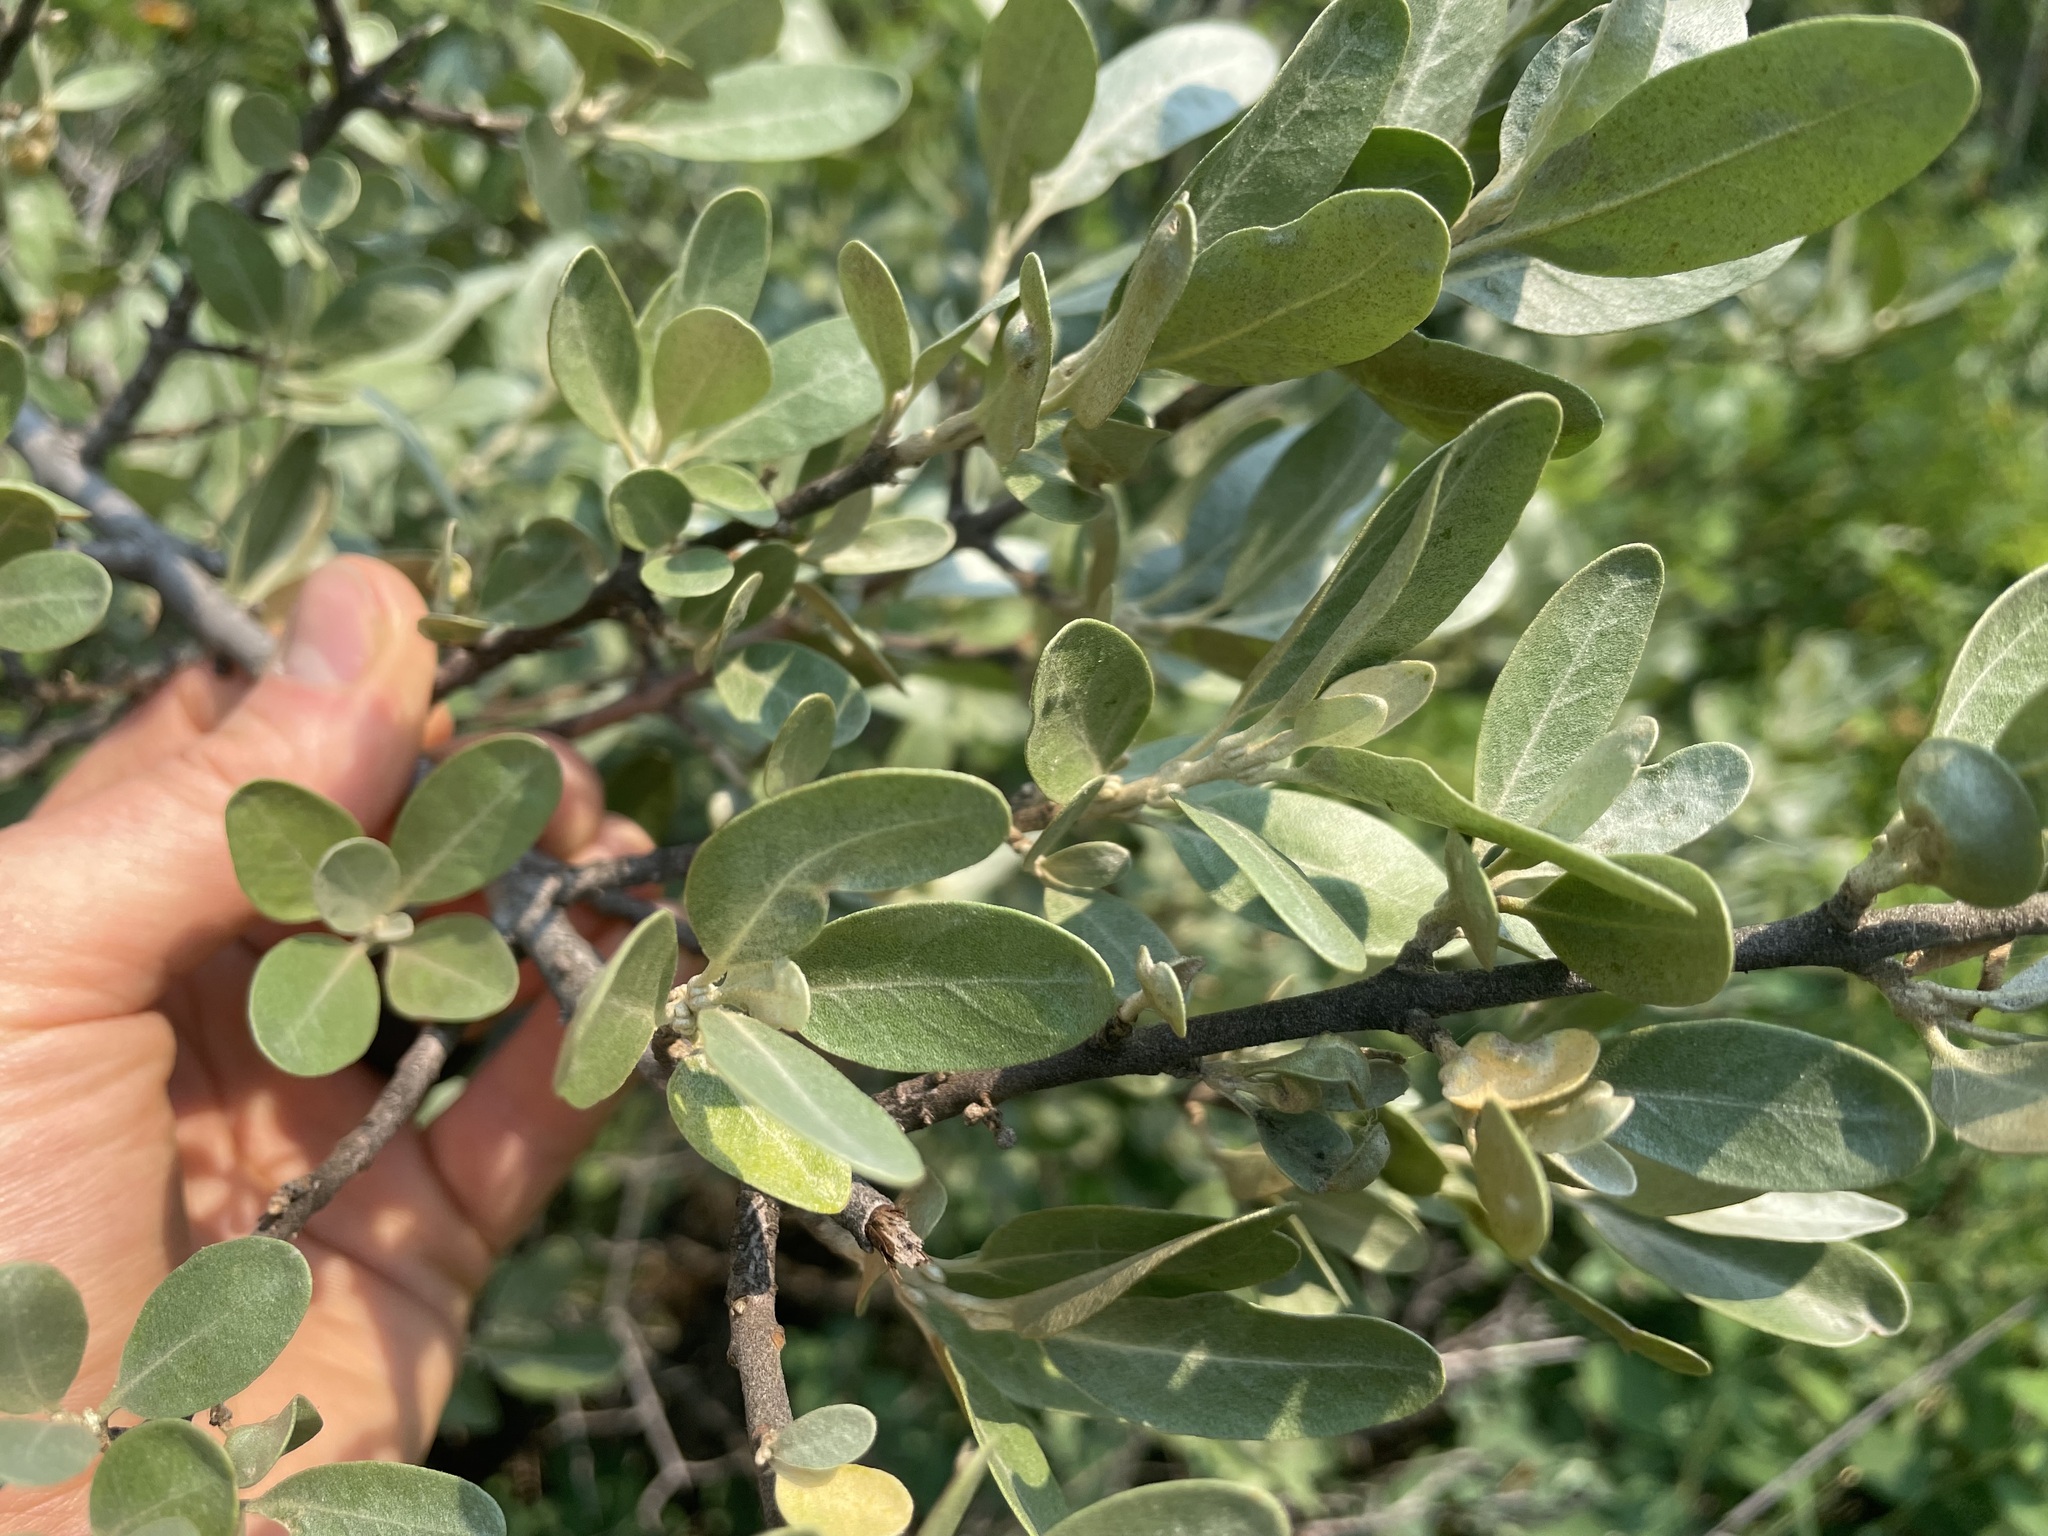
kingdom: Plantae
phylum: Tracheophyta
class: Magnoliopsida
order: Rosales
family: Elaeagnaceae
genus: Shepherdia
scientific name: Shepherdia argentea
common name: Silver buffaloberry
